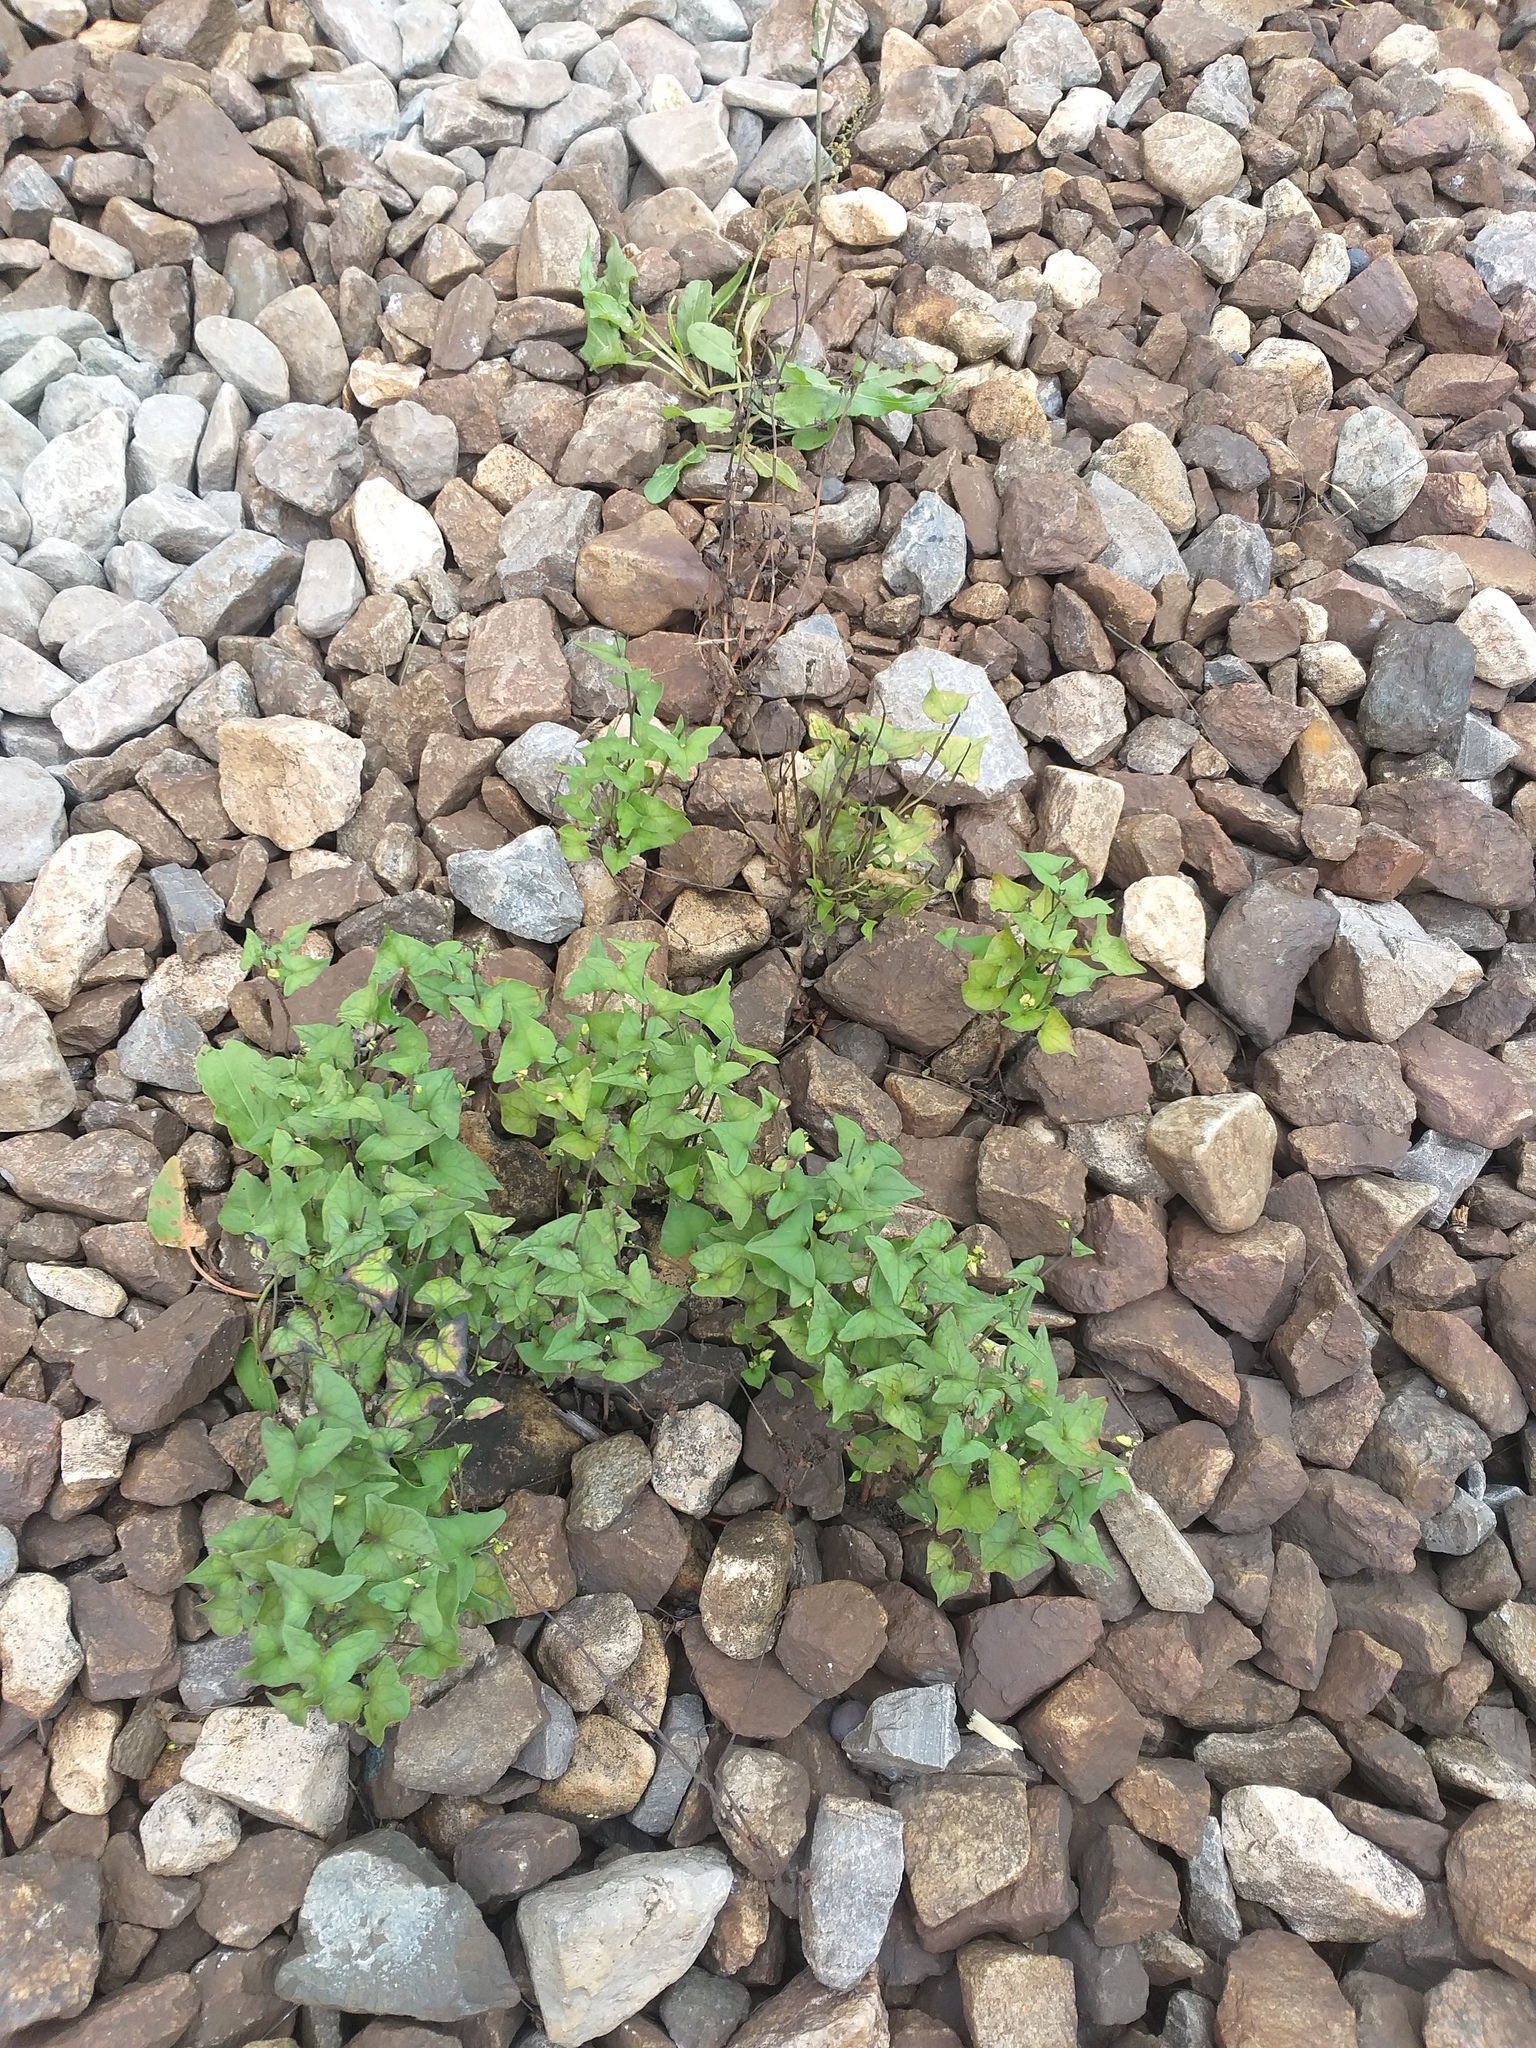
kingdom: Plantae
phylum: Tracheophyta
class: Magnoliopsida
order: Caryophyllales
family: Polygonaceae
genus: Fagopyrum
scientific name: Fagopyrum tataricum
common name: Green buckwheat
